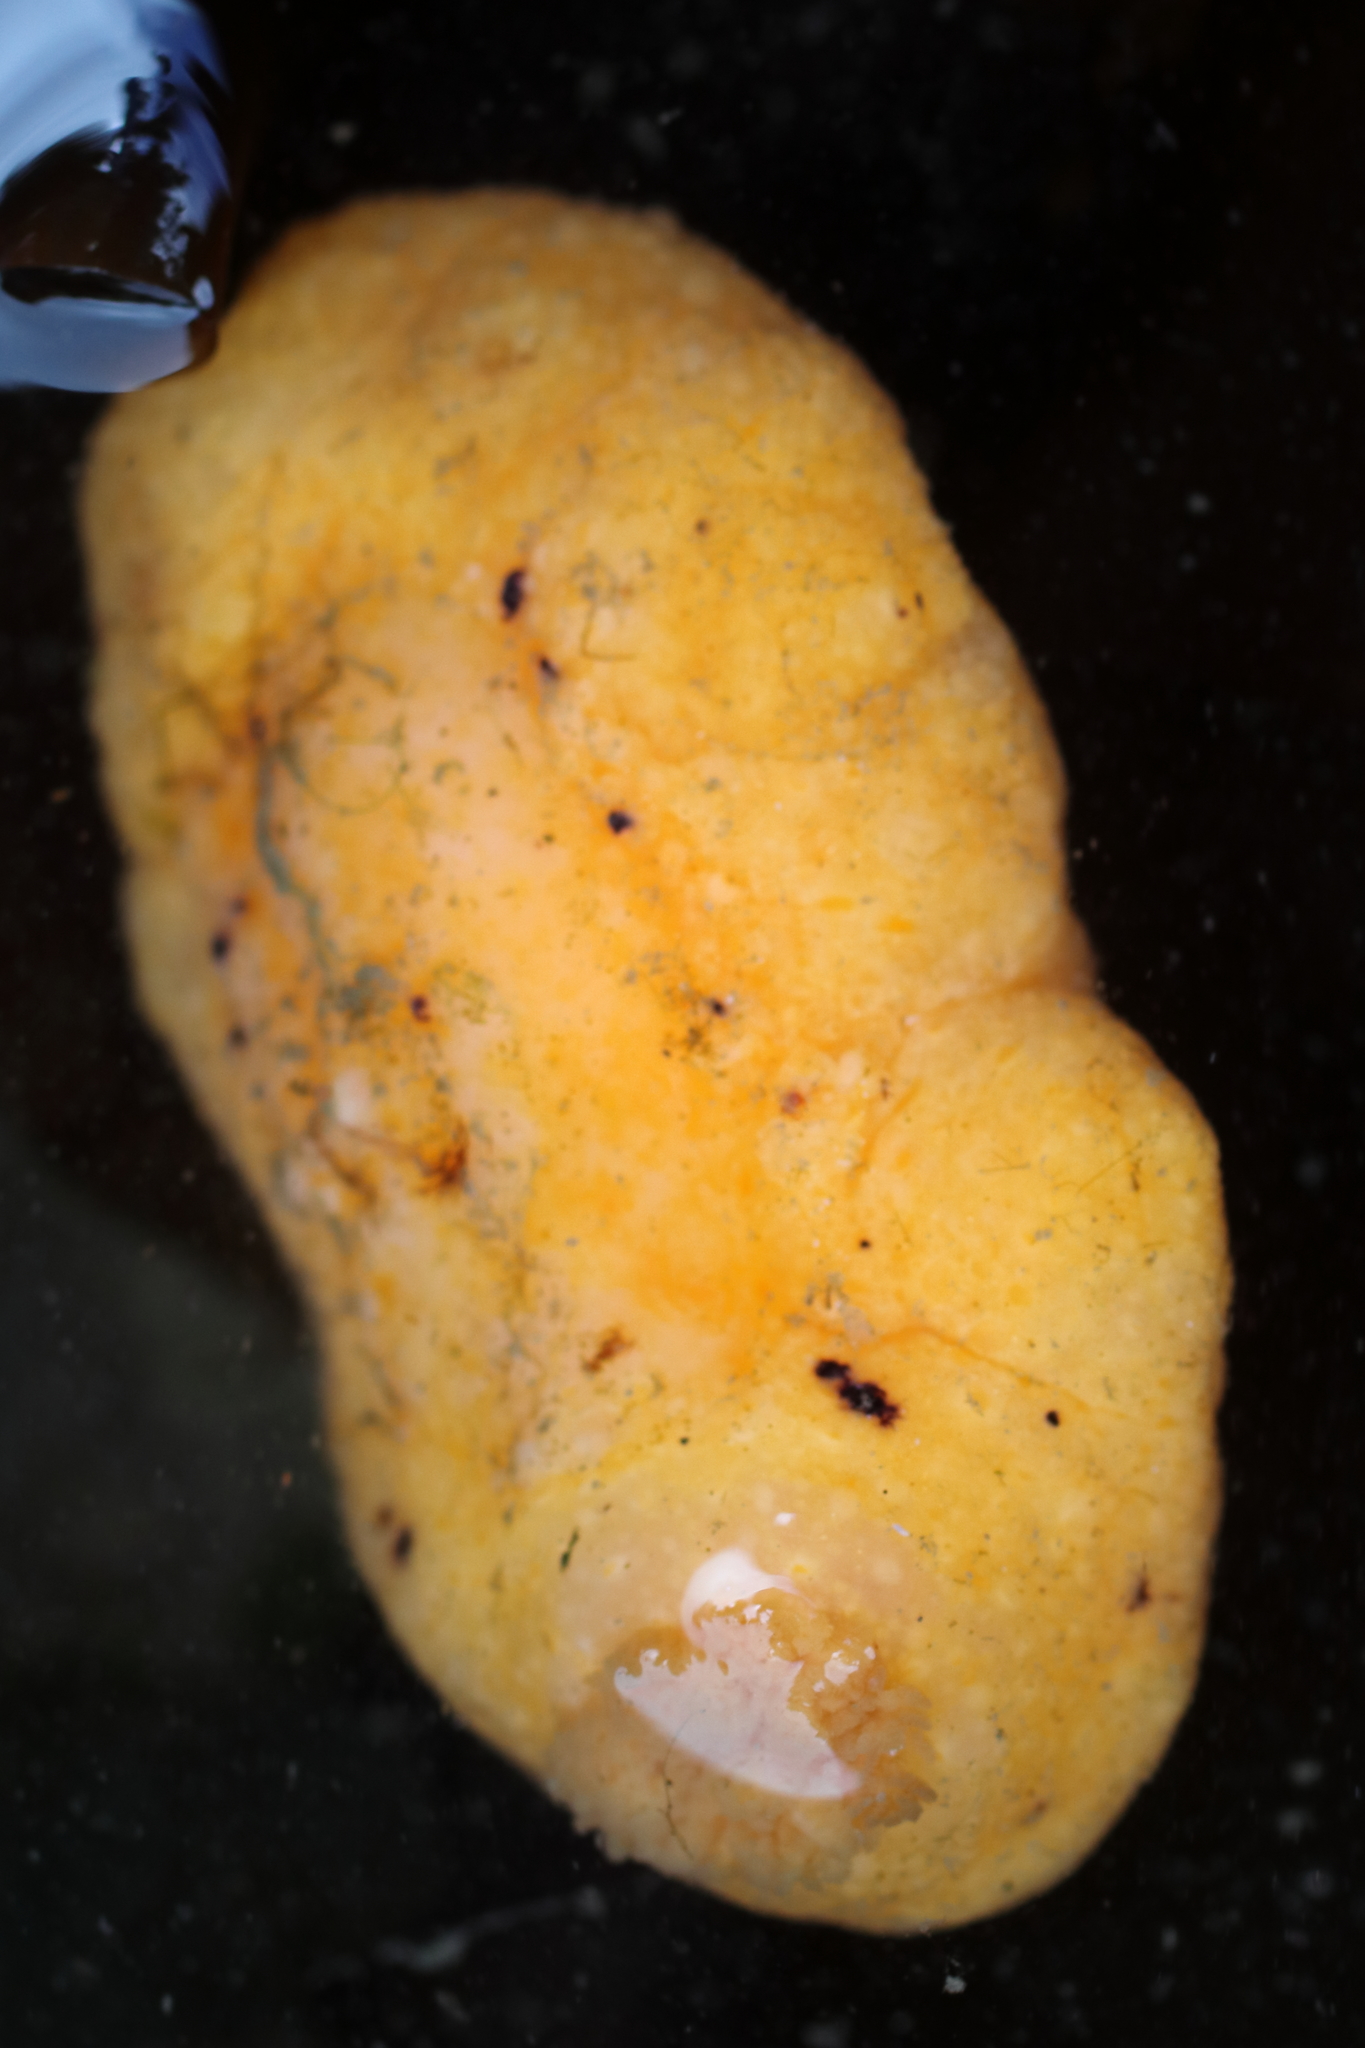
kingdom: Animalia
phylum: Mollusca
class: Gastropoda
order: Nudibranchia
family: Discodorididae
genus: Peltodoris
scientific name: Peltodoris nobilis
